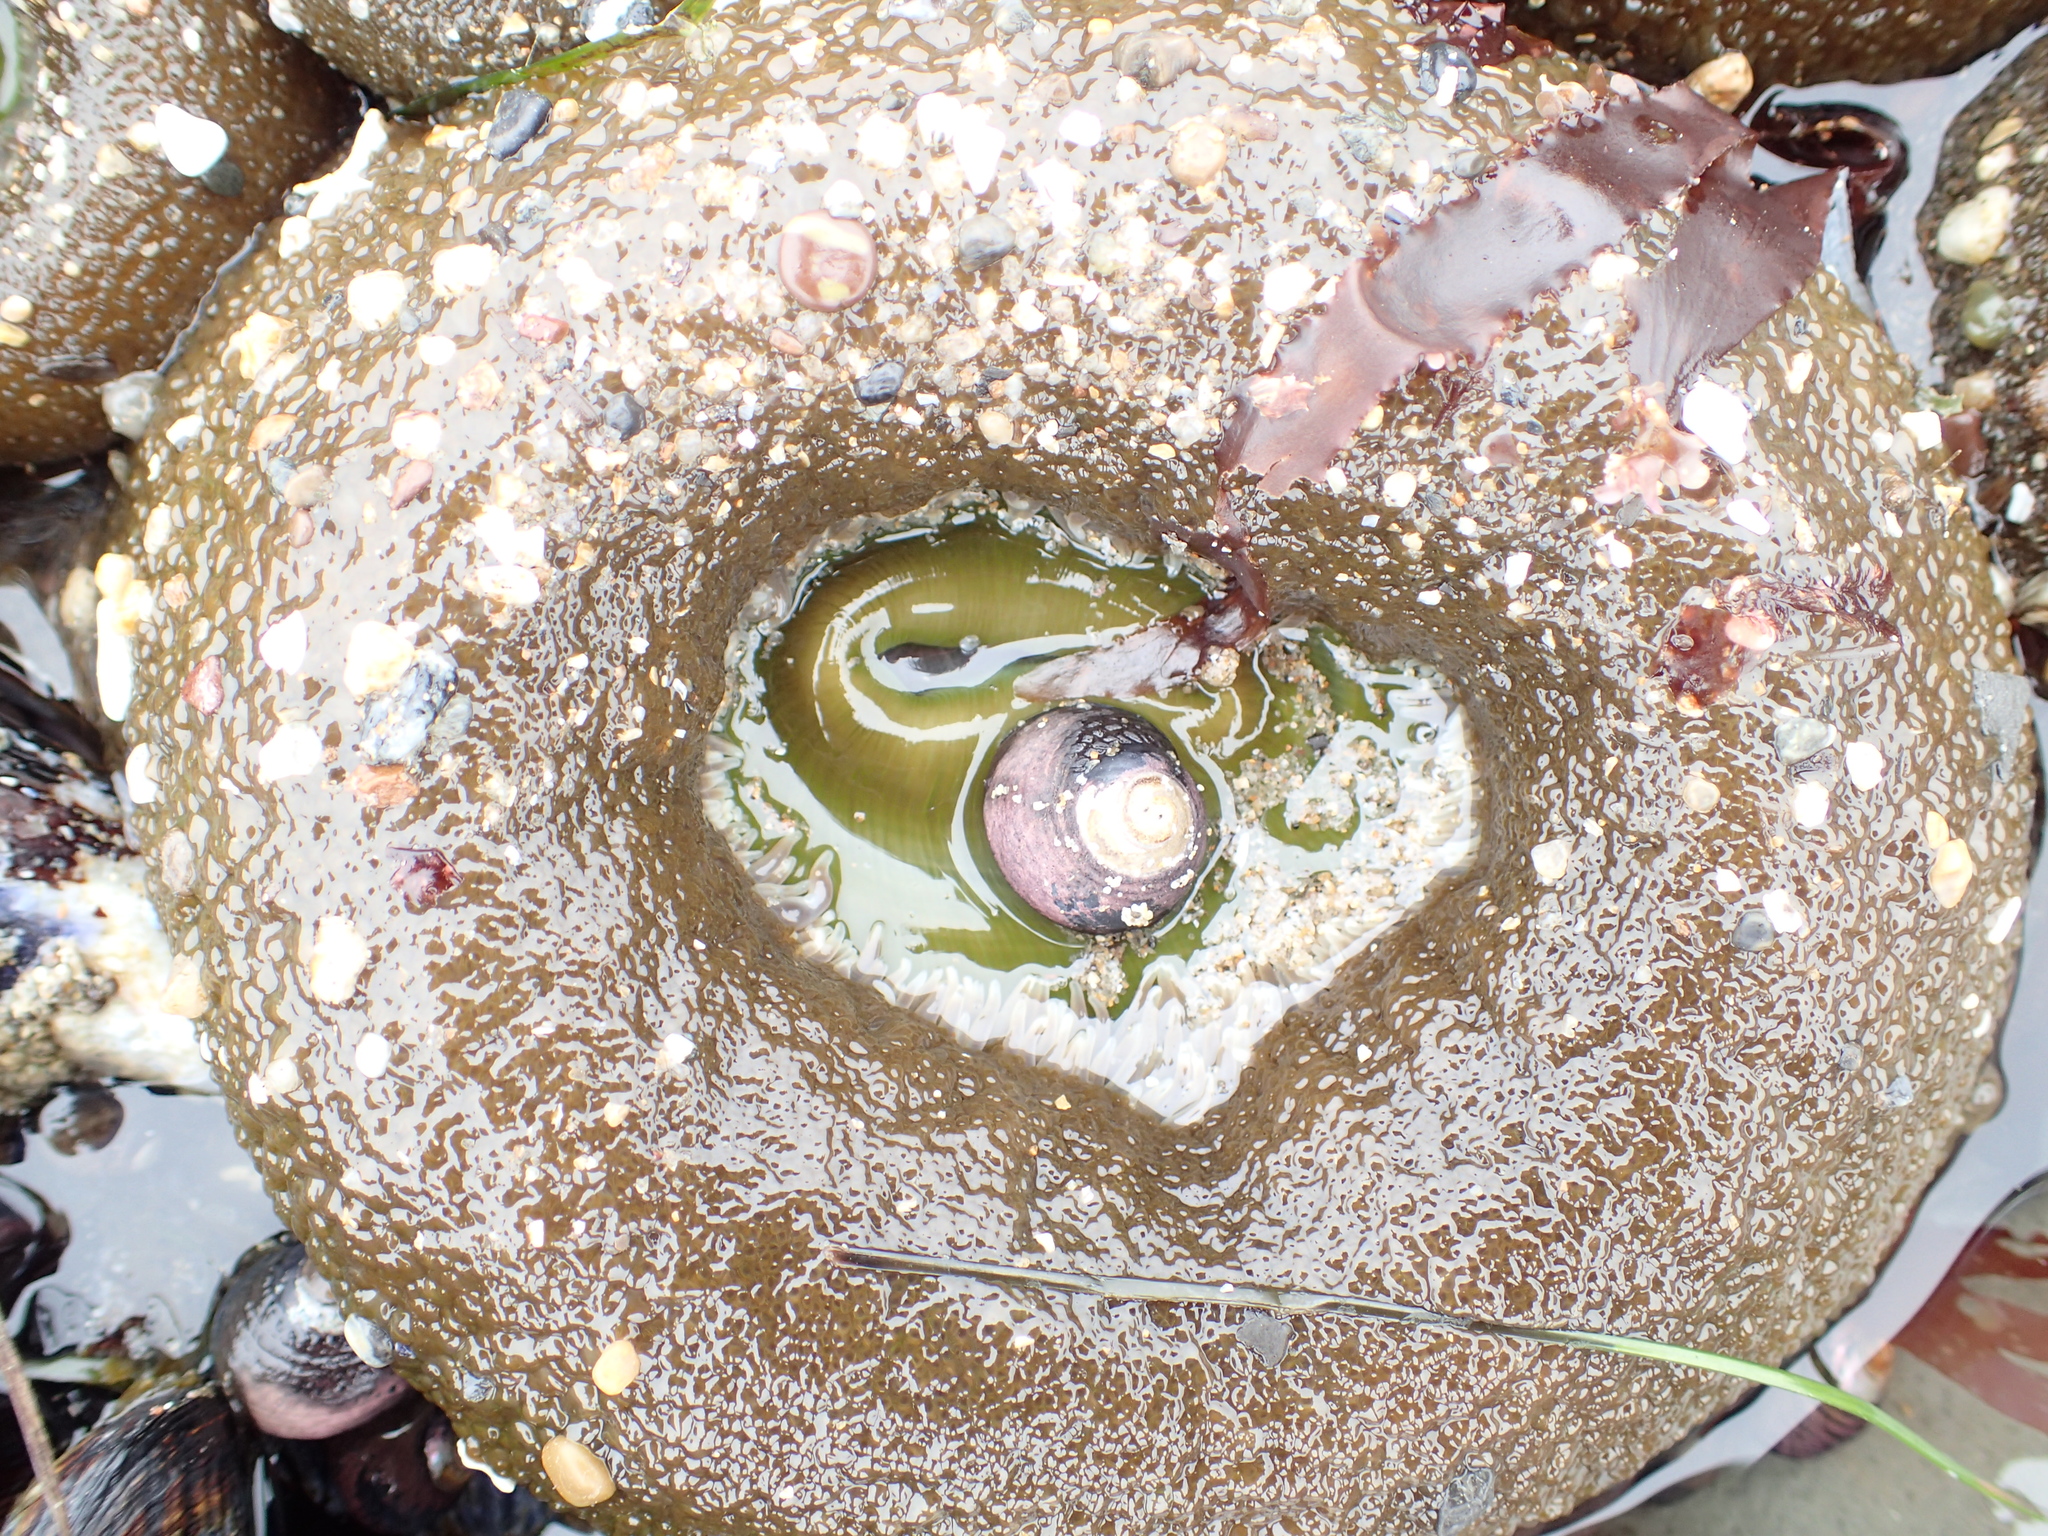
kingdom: Animalia
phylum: Cnidaria
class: Anthozoa
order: Actiniaria
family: Actiniidae
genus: Anthopleura
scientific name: Anthopleura xanthogrammica
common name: Giant green anemone
